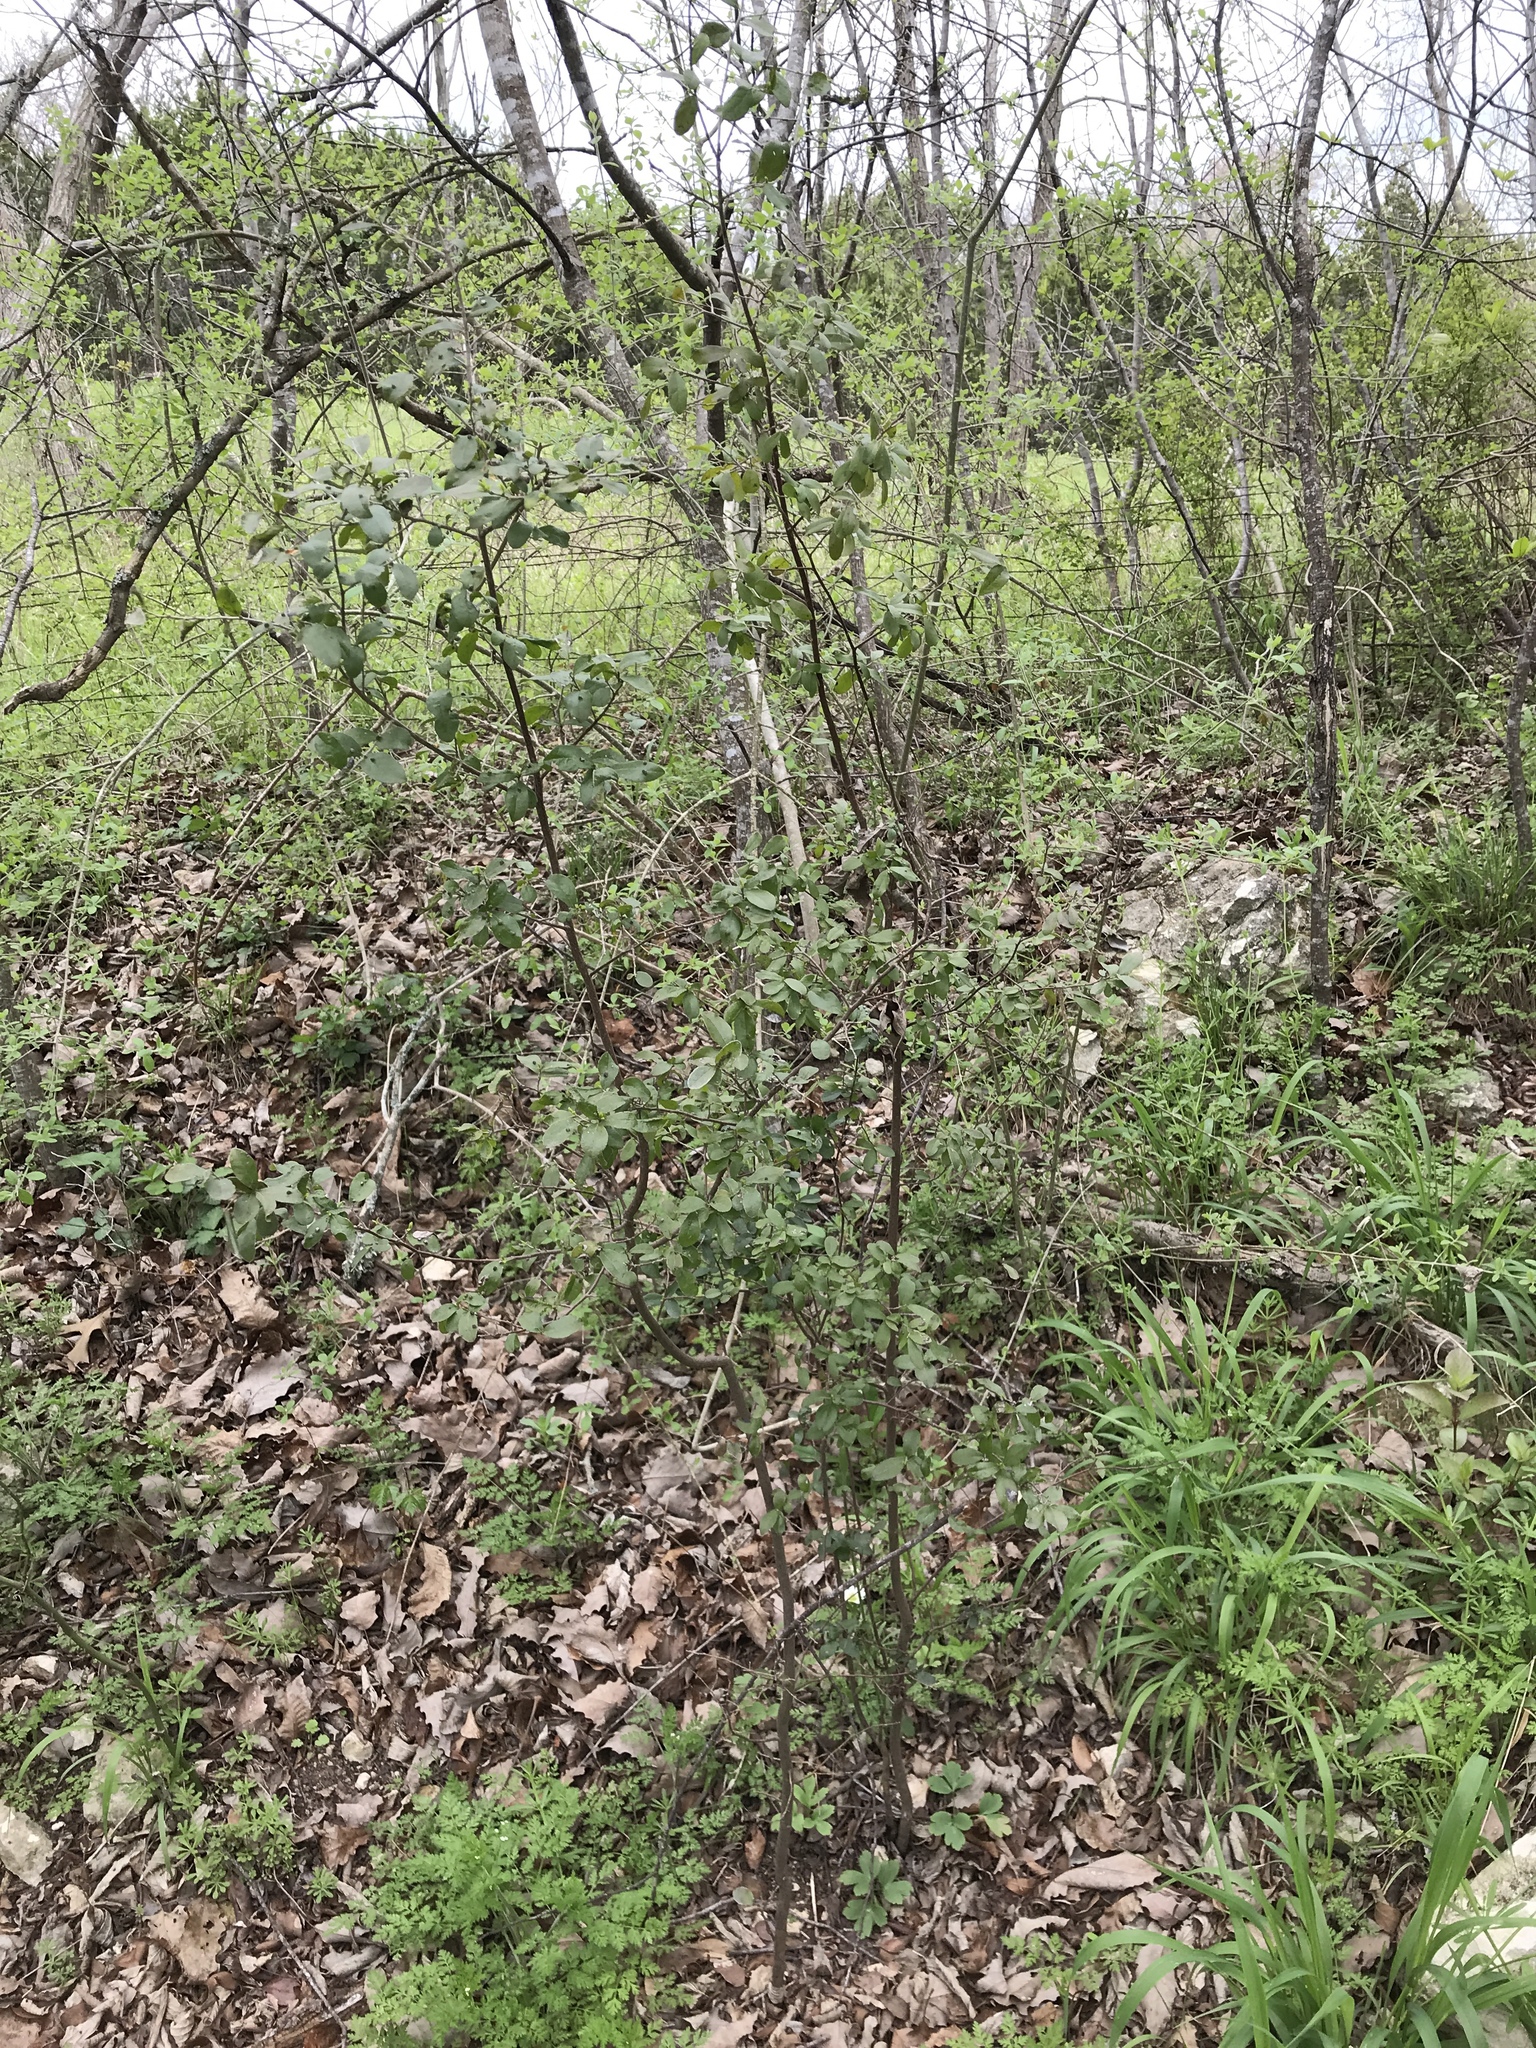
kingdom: Plantae
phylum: Tracheophyta
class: Magnoliopsida
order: Ericales
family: Ebenaceae
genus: Diospyros
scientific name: Diospyros texana
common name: Texas persimmon
